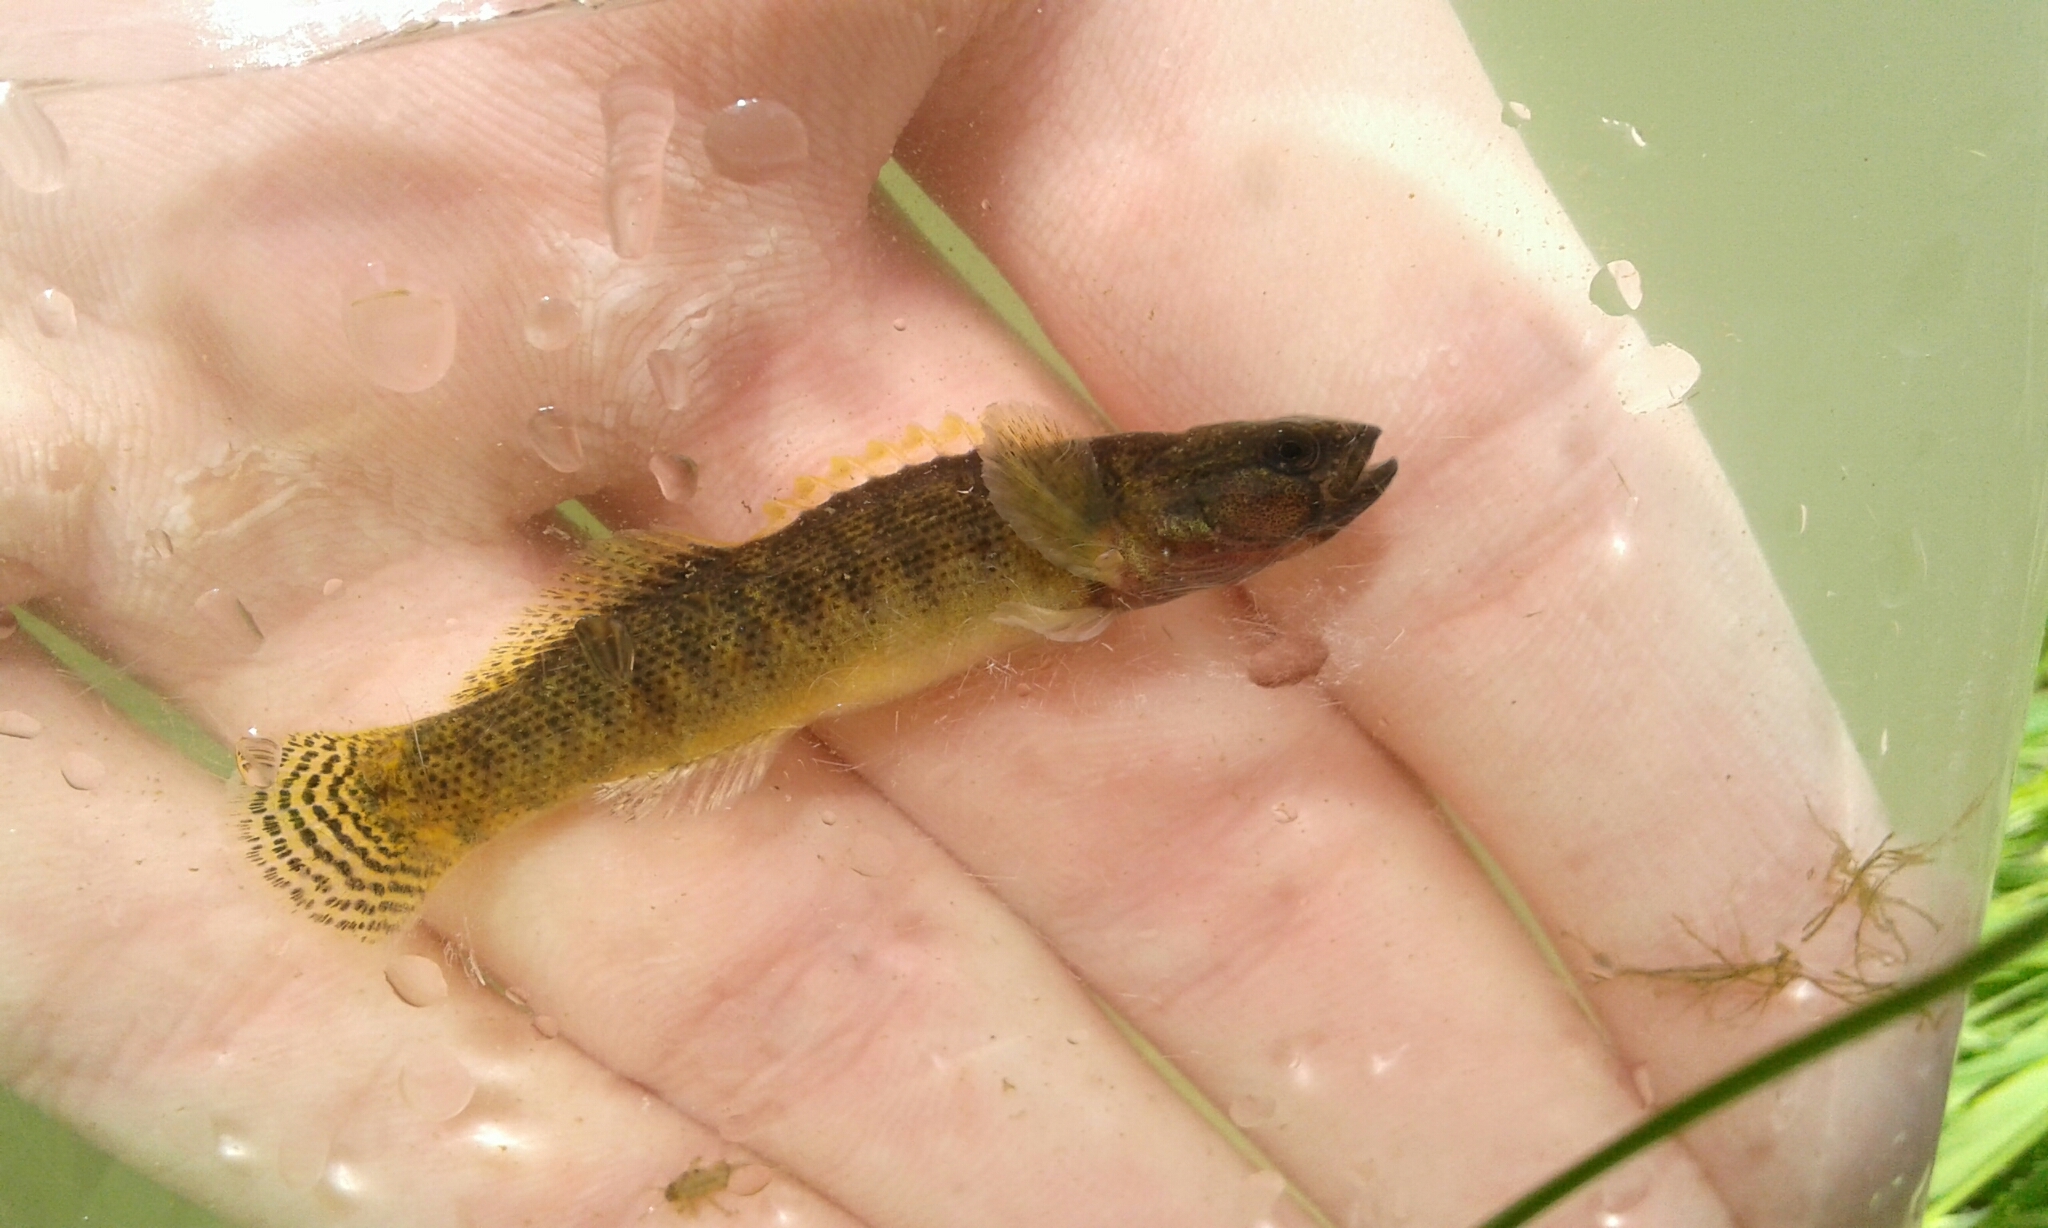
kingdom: Animalia
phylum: Chordata
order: Perciformes
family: Percidae
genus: Etheostoma
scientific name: Etheostoma flabellare
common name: Fantail darter
